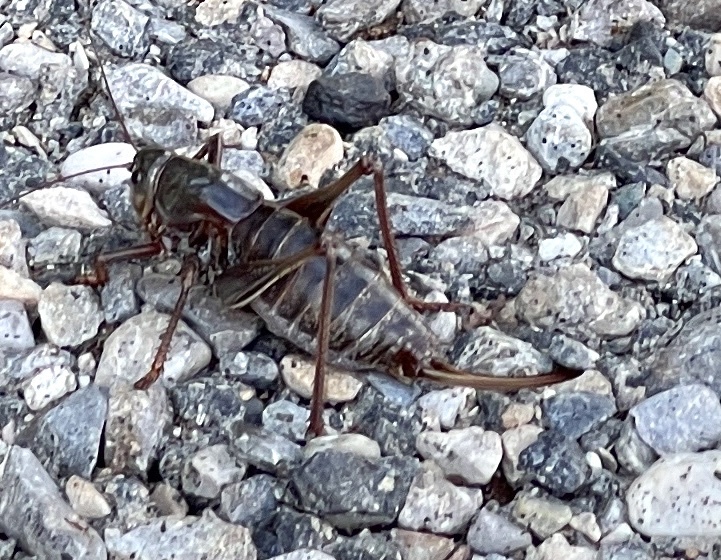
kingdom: Animalia
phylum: Arthropoda
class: Insecta
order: Orthoptera
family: Tettigoniidae
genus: Anabrus
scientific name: Anabrus simplex
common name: Mormon cricket
